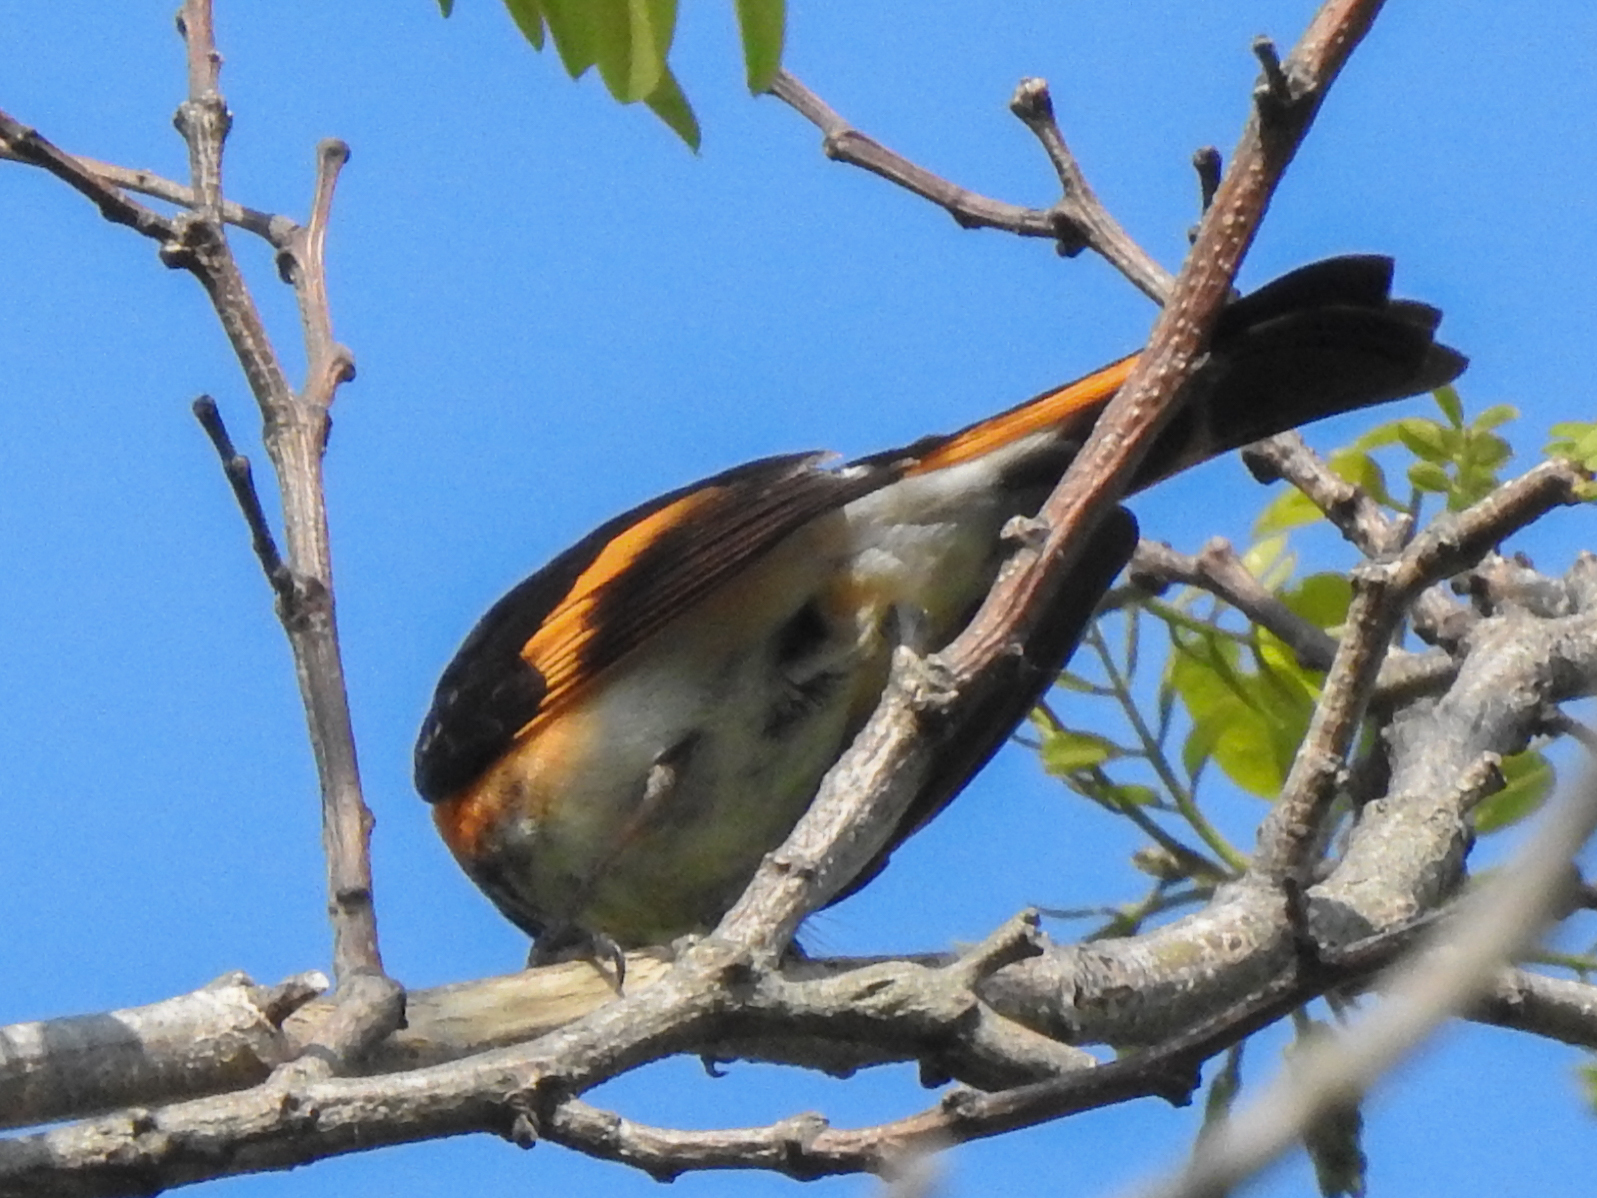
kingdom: Animalia
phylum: Chordata
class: Aves
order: Passeriformes
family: Parulidae
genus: Setophaga
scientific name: Setophaga ruticilla
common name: American redstart
